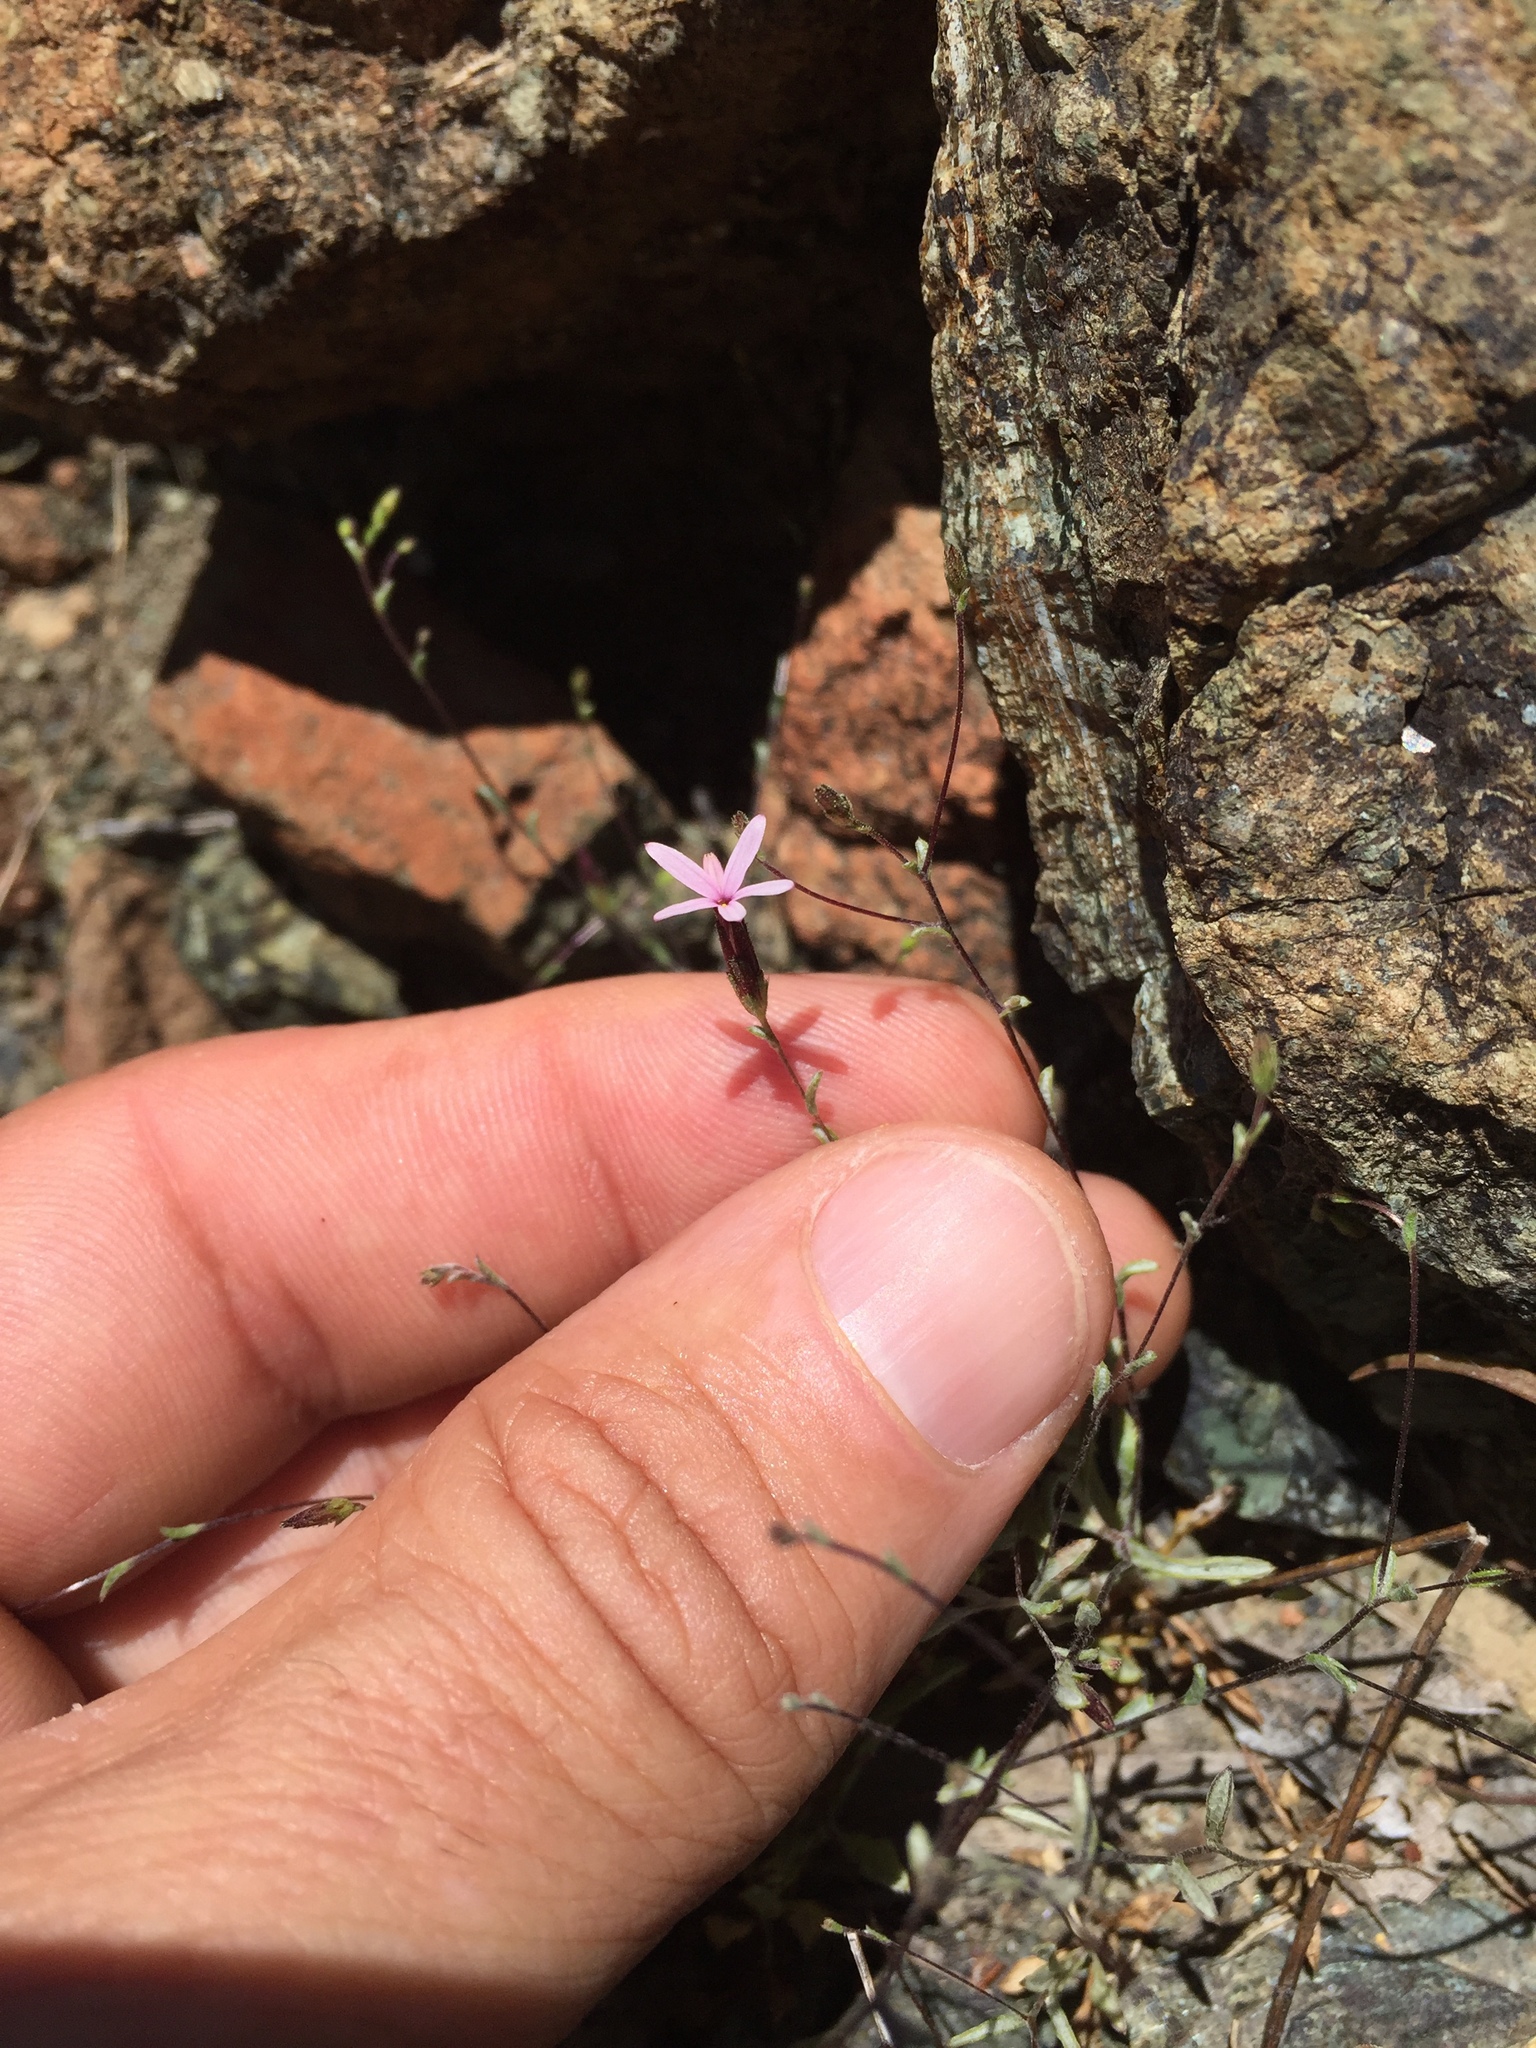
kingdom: Plantae
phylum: Tracheophyta
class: Magnoliopsida
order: Asterales
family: Asteraceae
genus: Lessingia
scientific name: Lessingia micradenia
